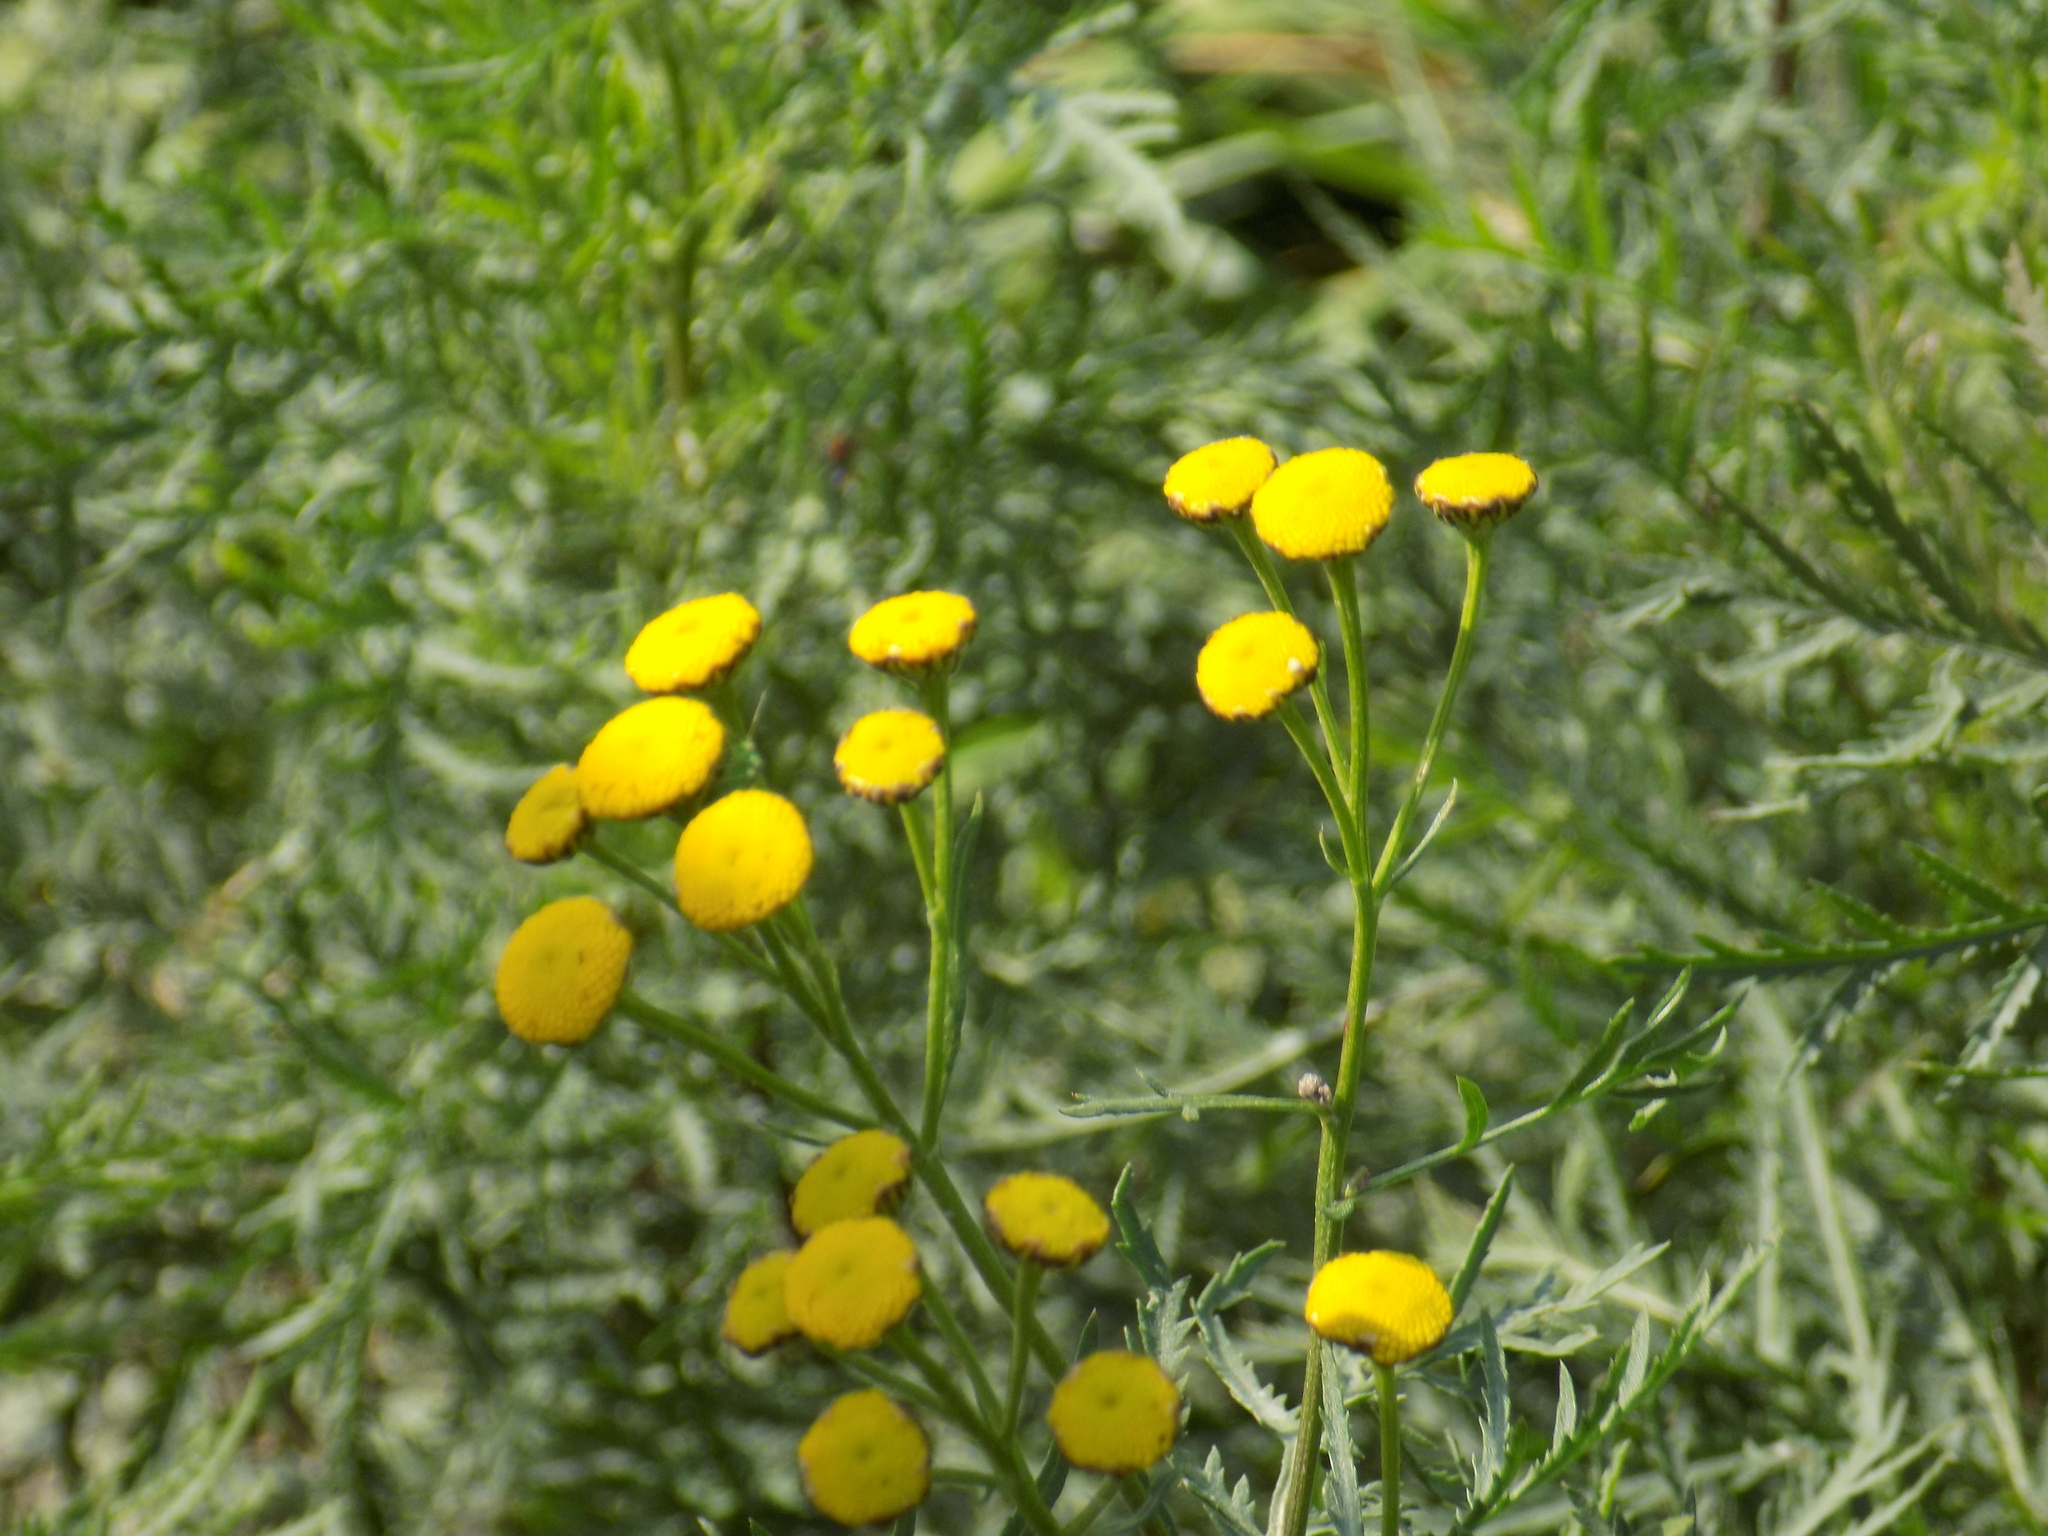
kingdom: Plantae
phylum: Tracheophyta
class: Magnoliopsida
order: Asterales
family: Asteraceae
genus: Tanacetum
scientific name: Tanacetum vulgare
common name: Common tansy
